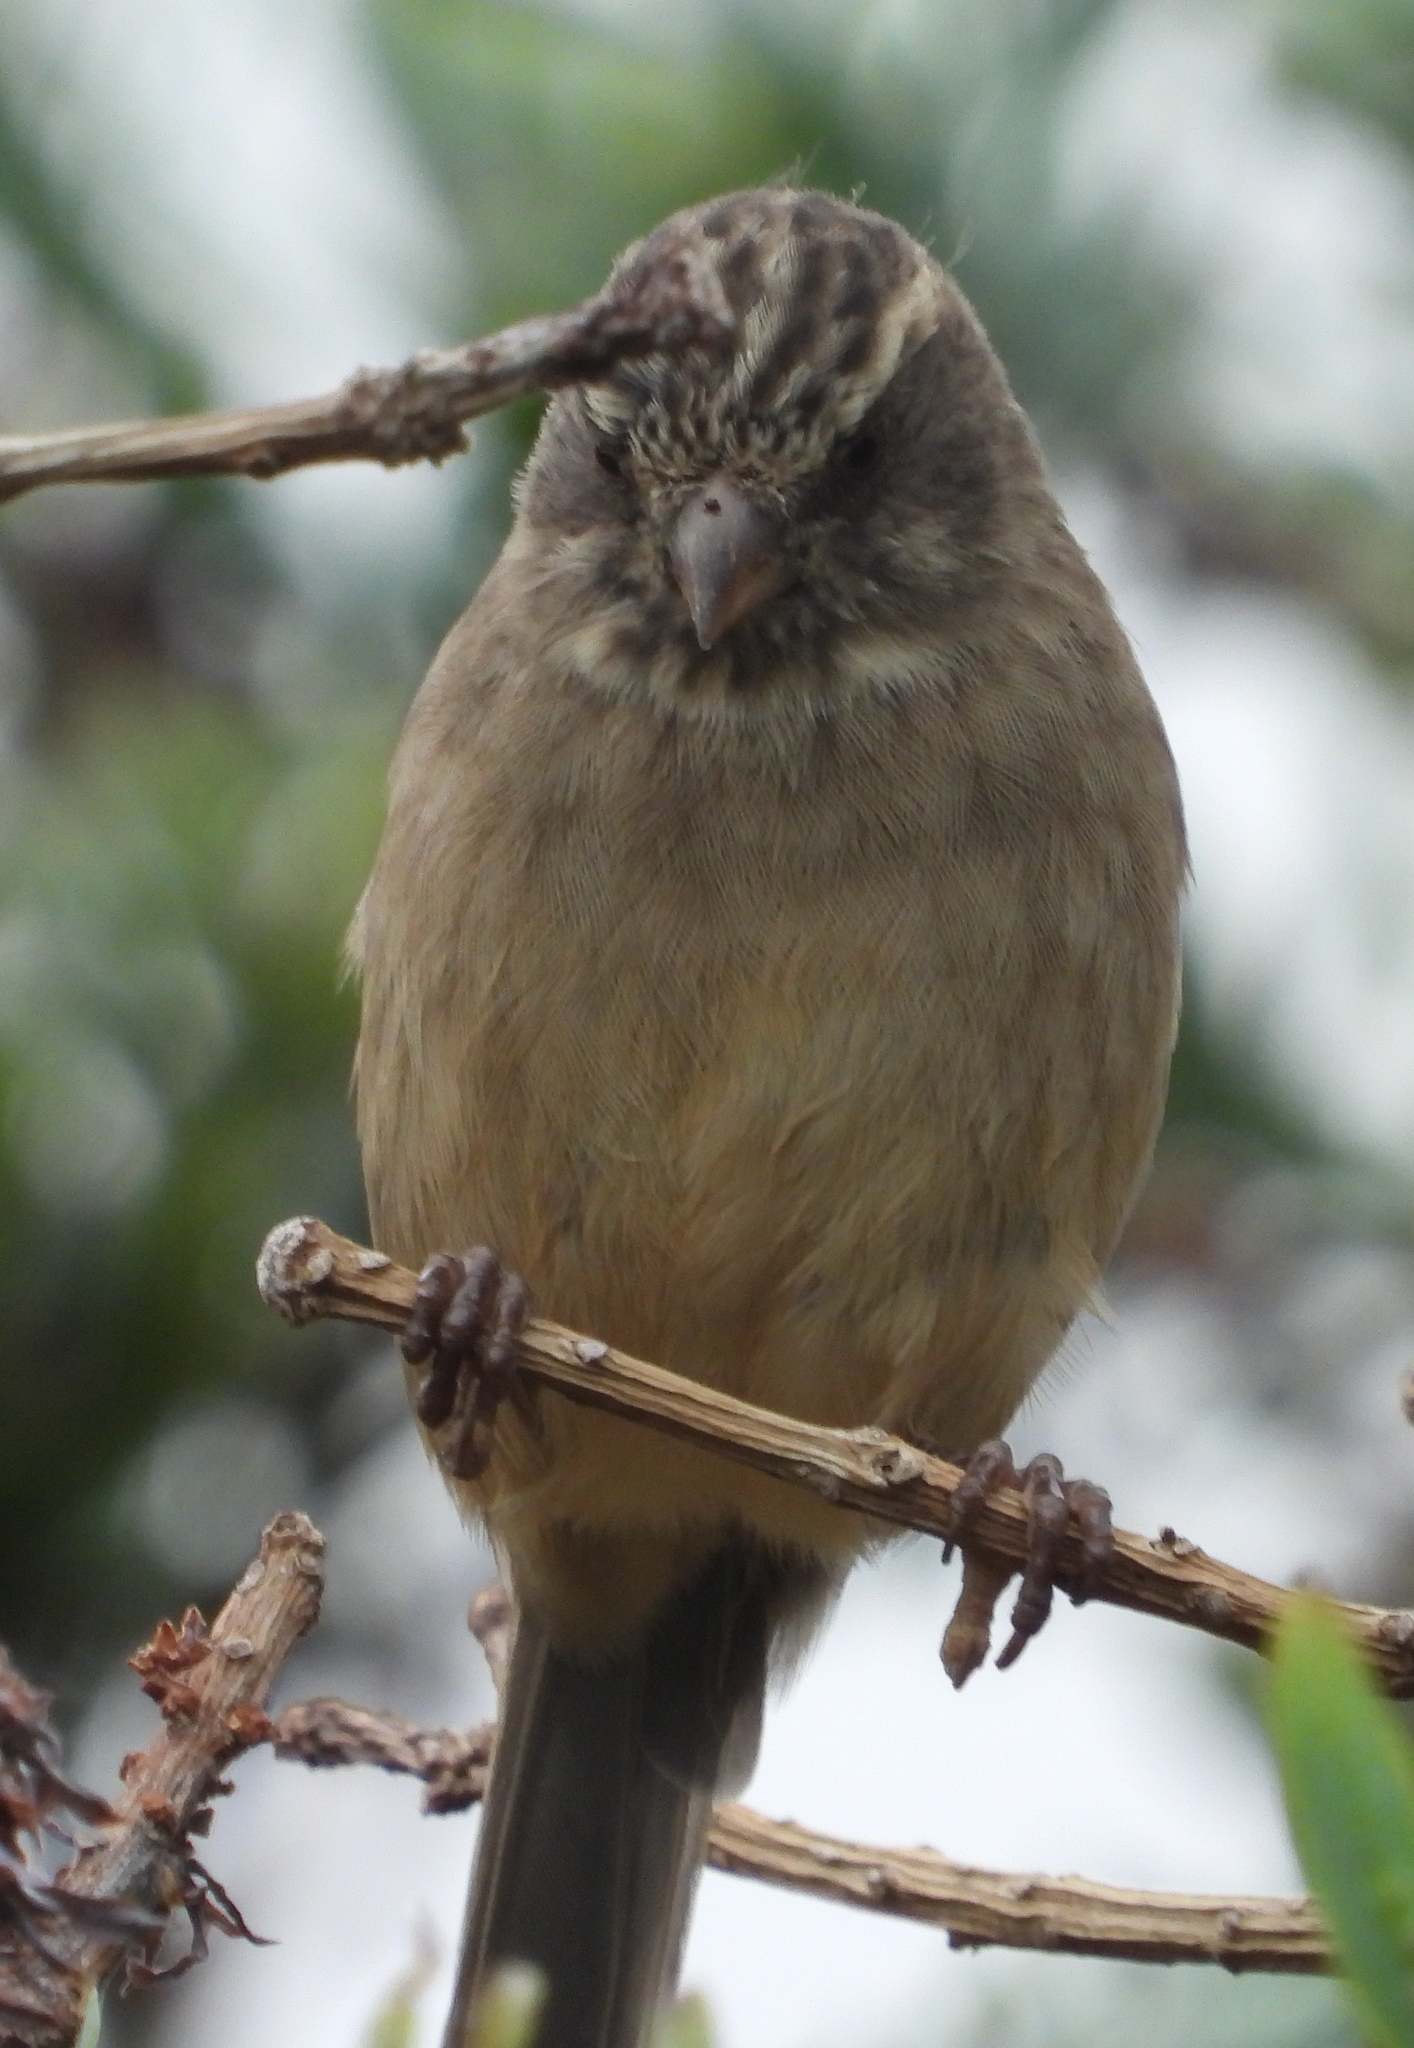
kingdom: Animalia
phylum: Chordata
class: Aves
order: Passeriformes
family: Fringillidae
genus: Crithagra
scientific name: Crithagra gularis
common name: Streaky-headed seedeater
